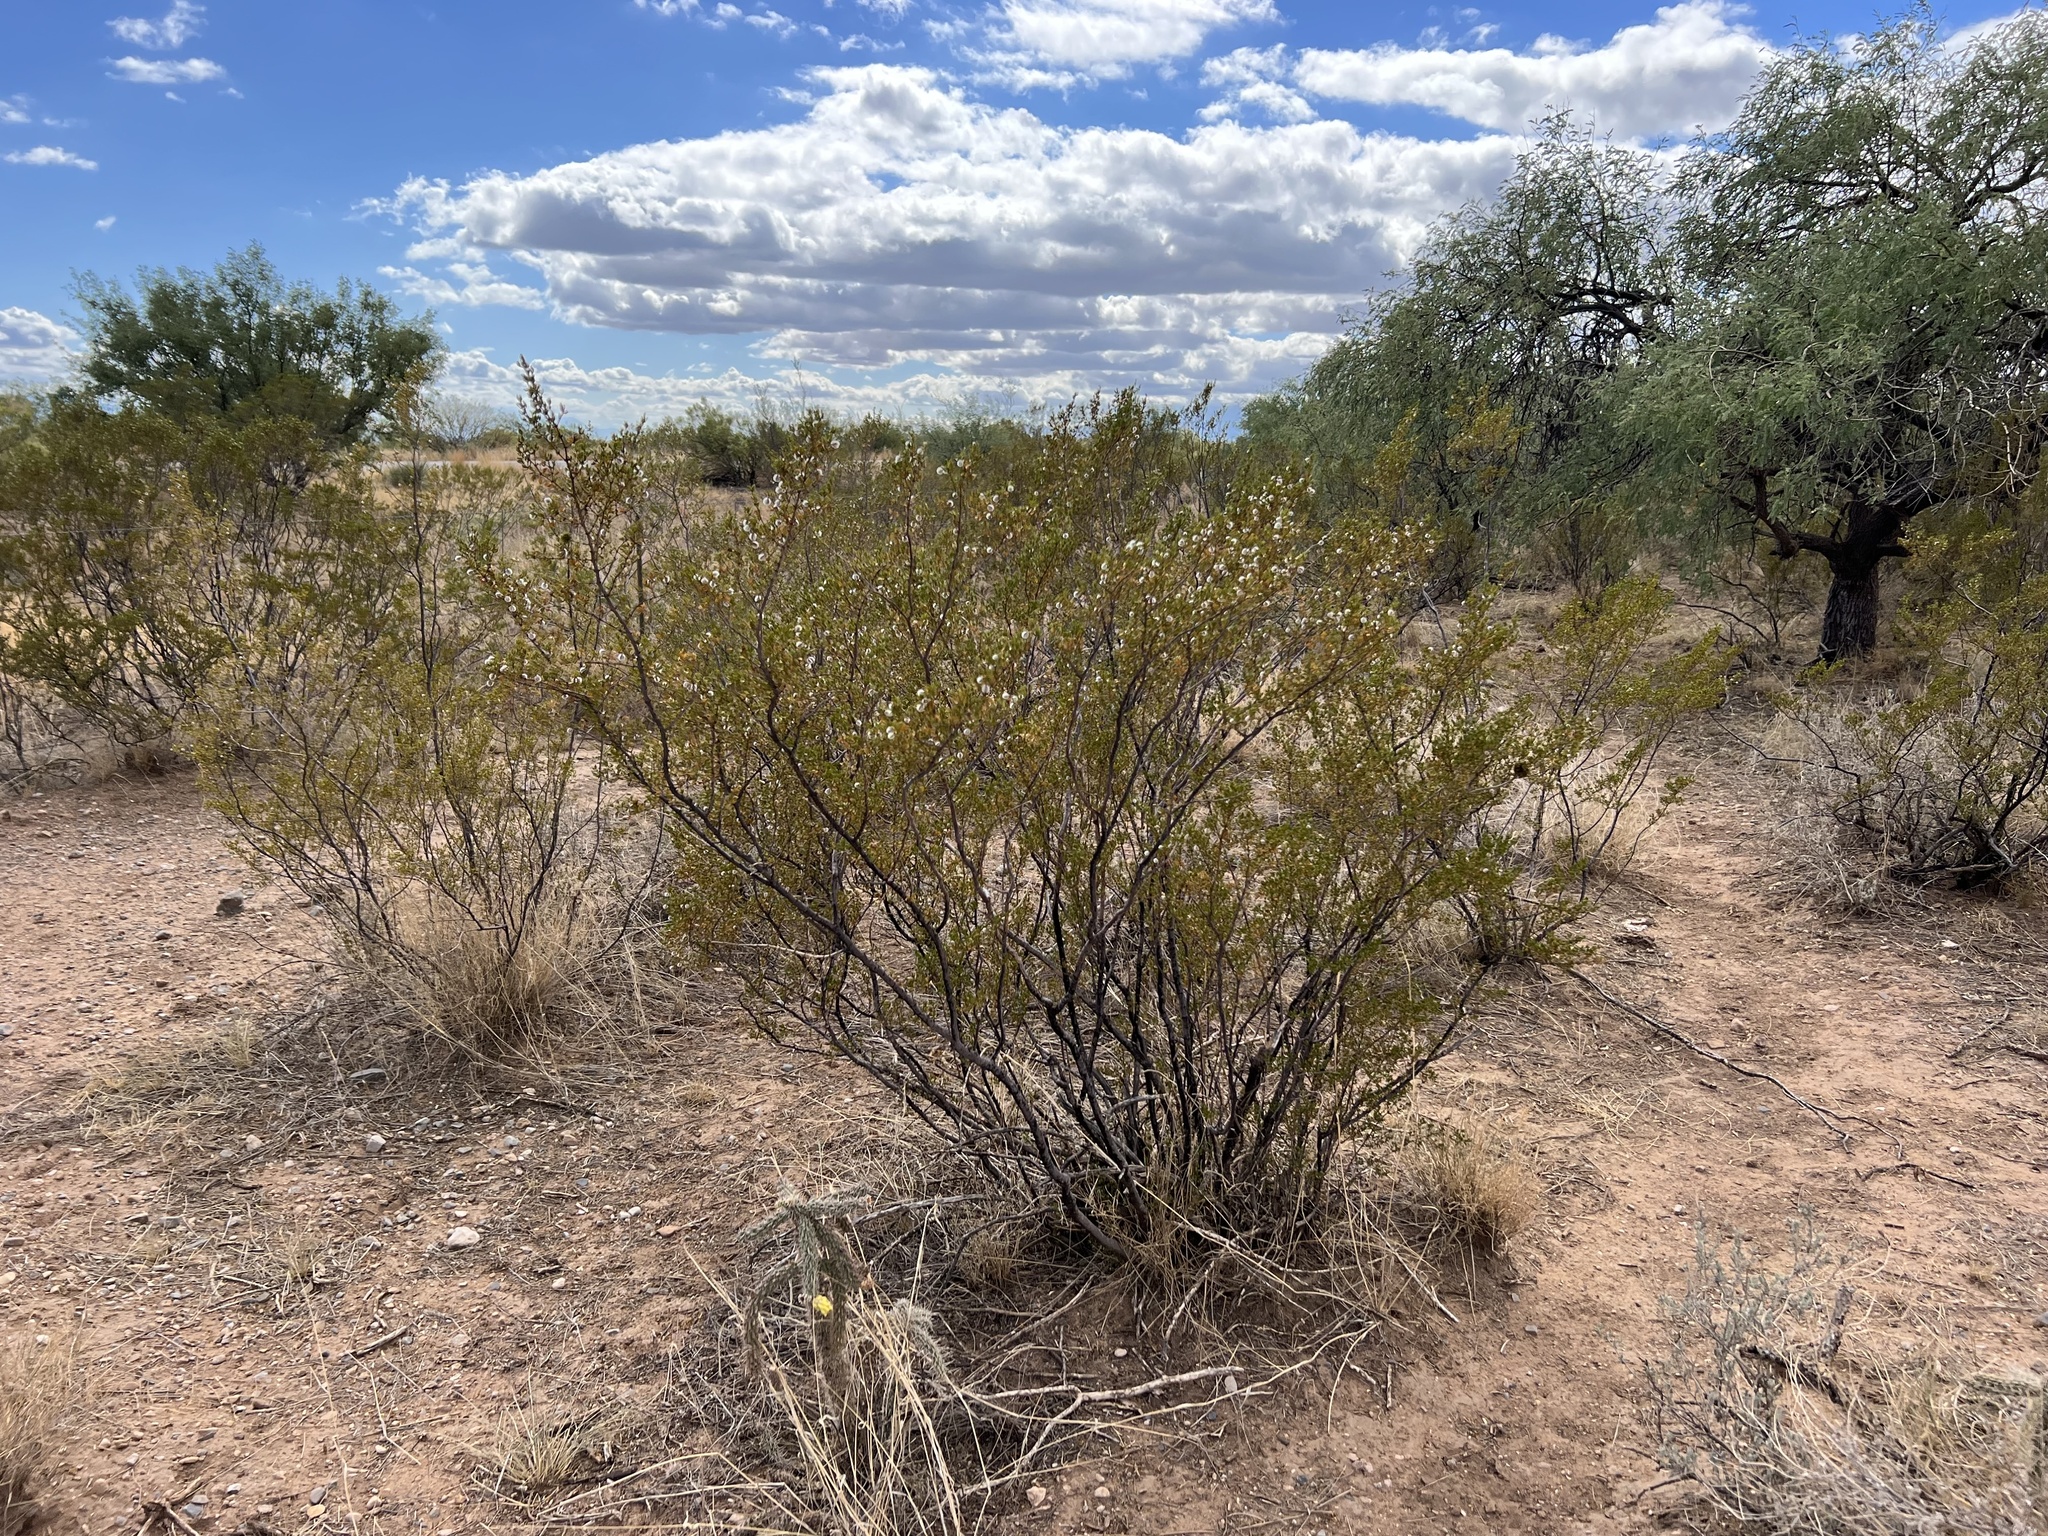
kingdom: Plantae
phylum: Tracheophyta
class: Magnoliopsida
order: Zygophyllales
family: Zygophyllaceae
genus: Larrea
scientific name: Larrea tridentata
